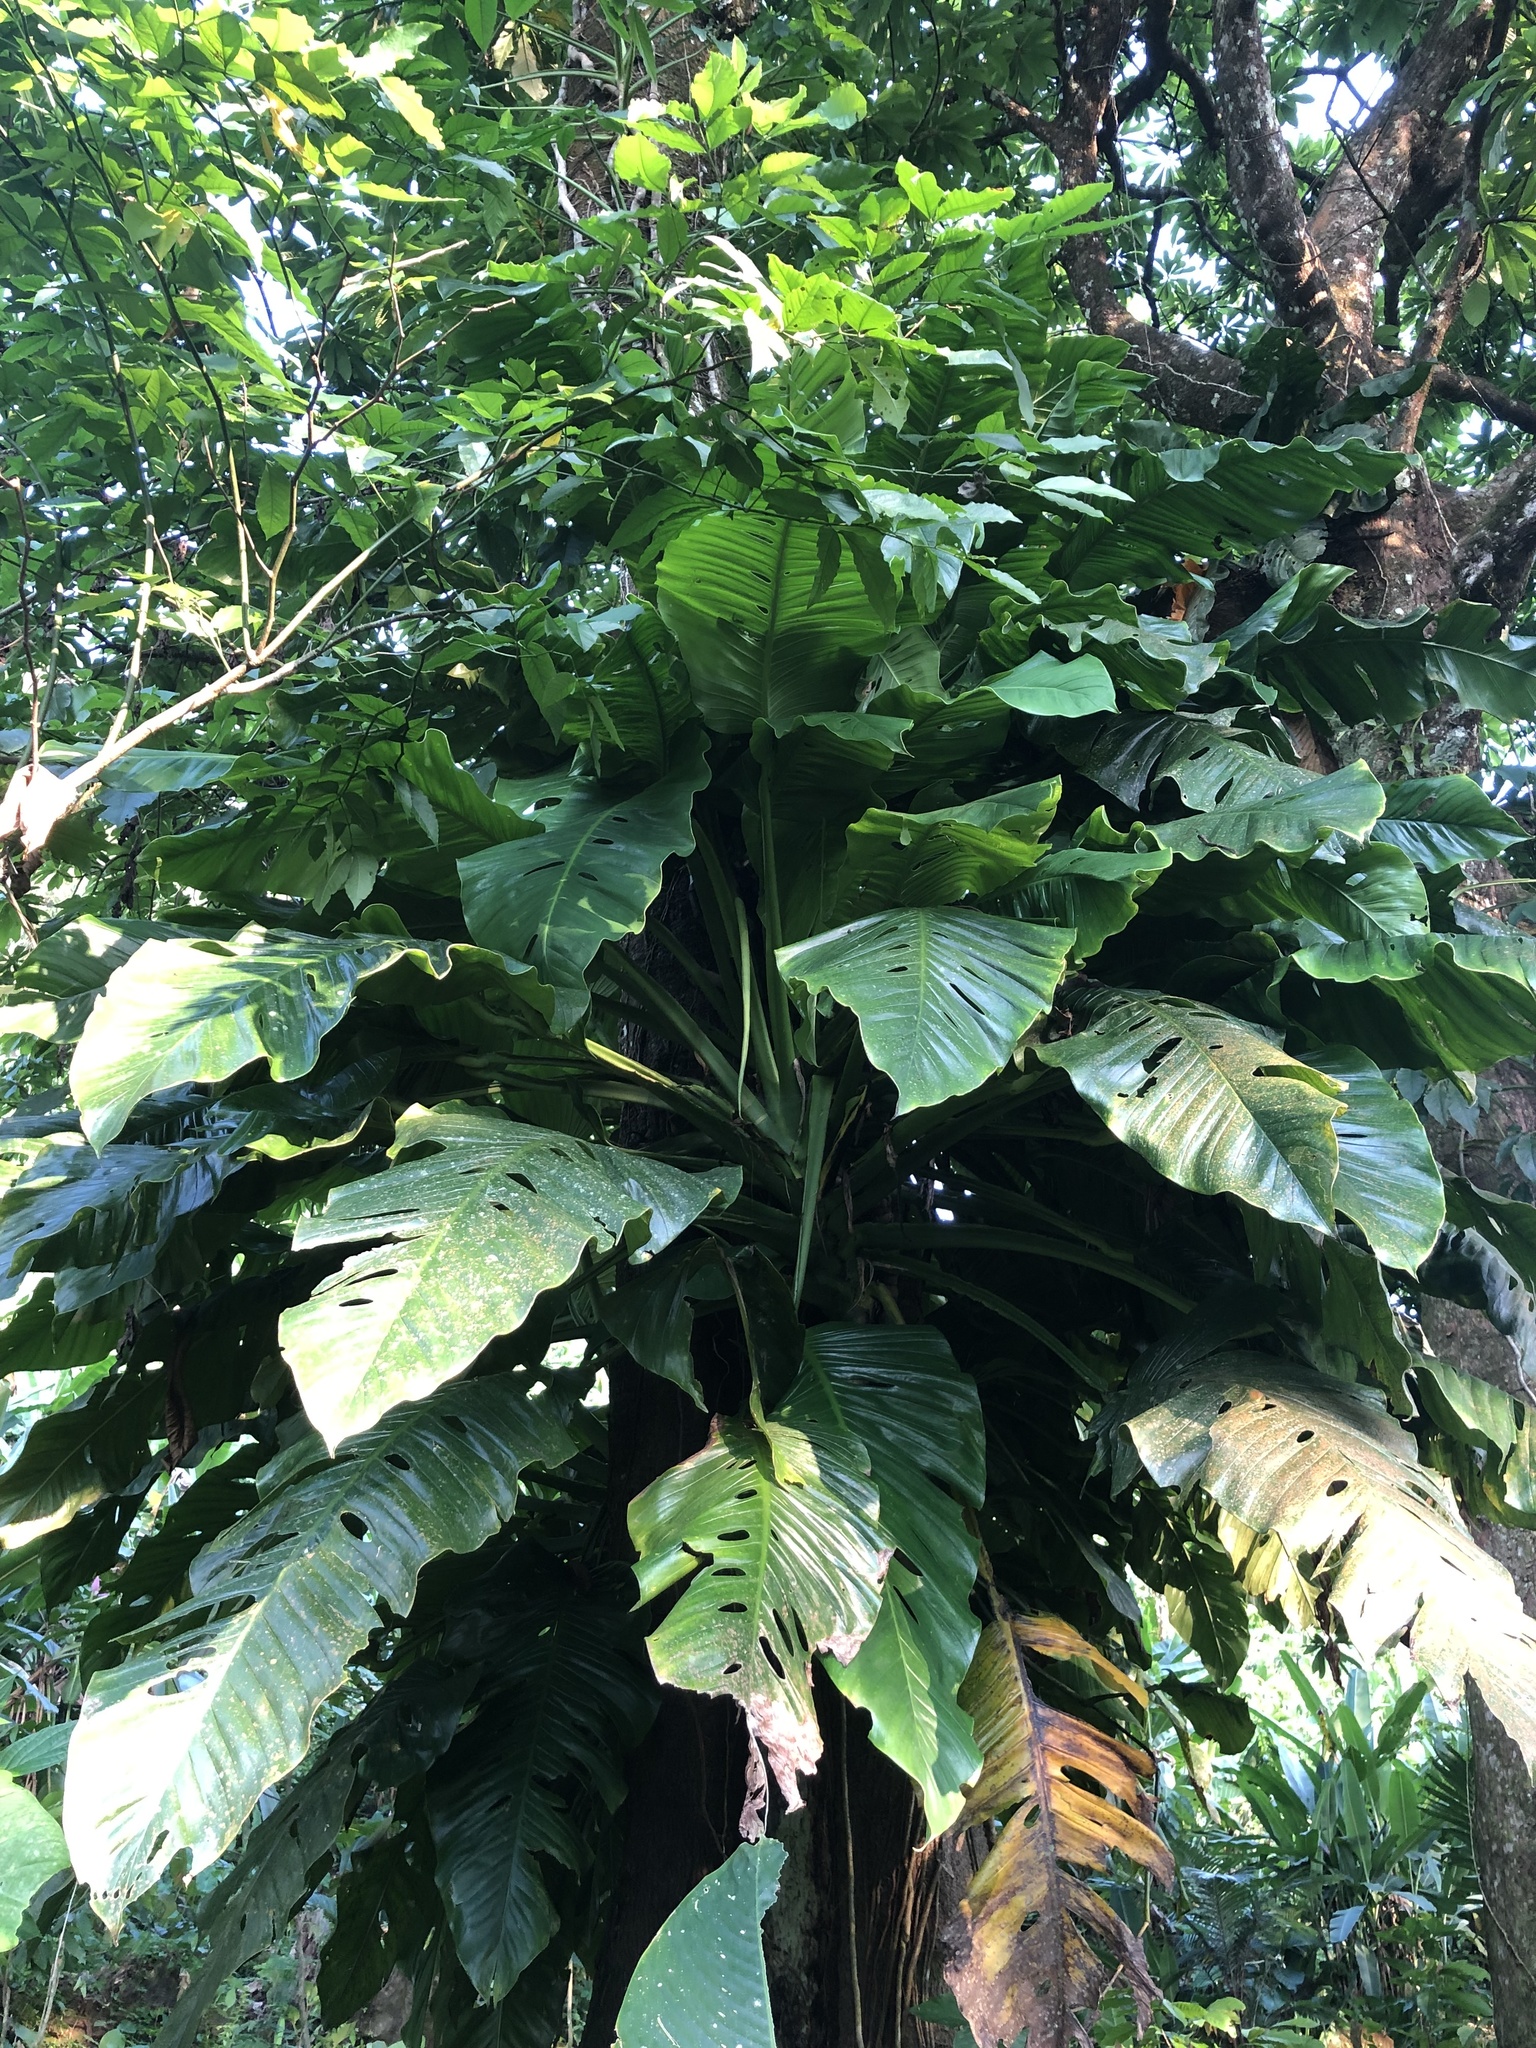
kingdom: Plantae
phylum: Tracheophyta
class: Liliopsida
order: Alismatales
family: Araceae
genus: Monstera
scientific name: Monstera egregia
